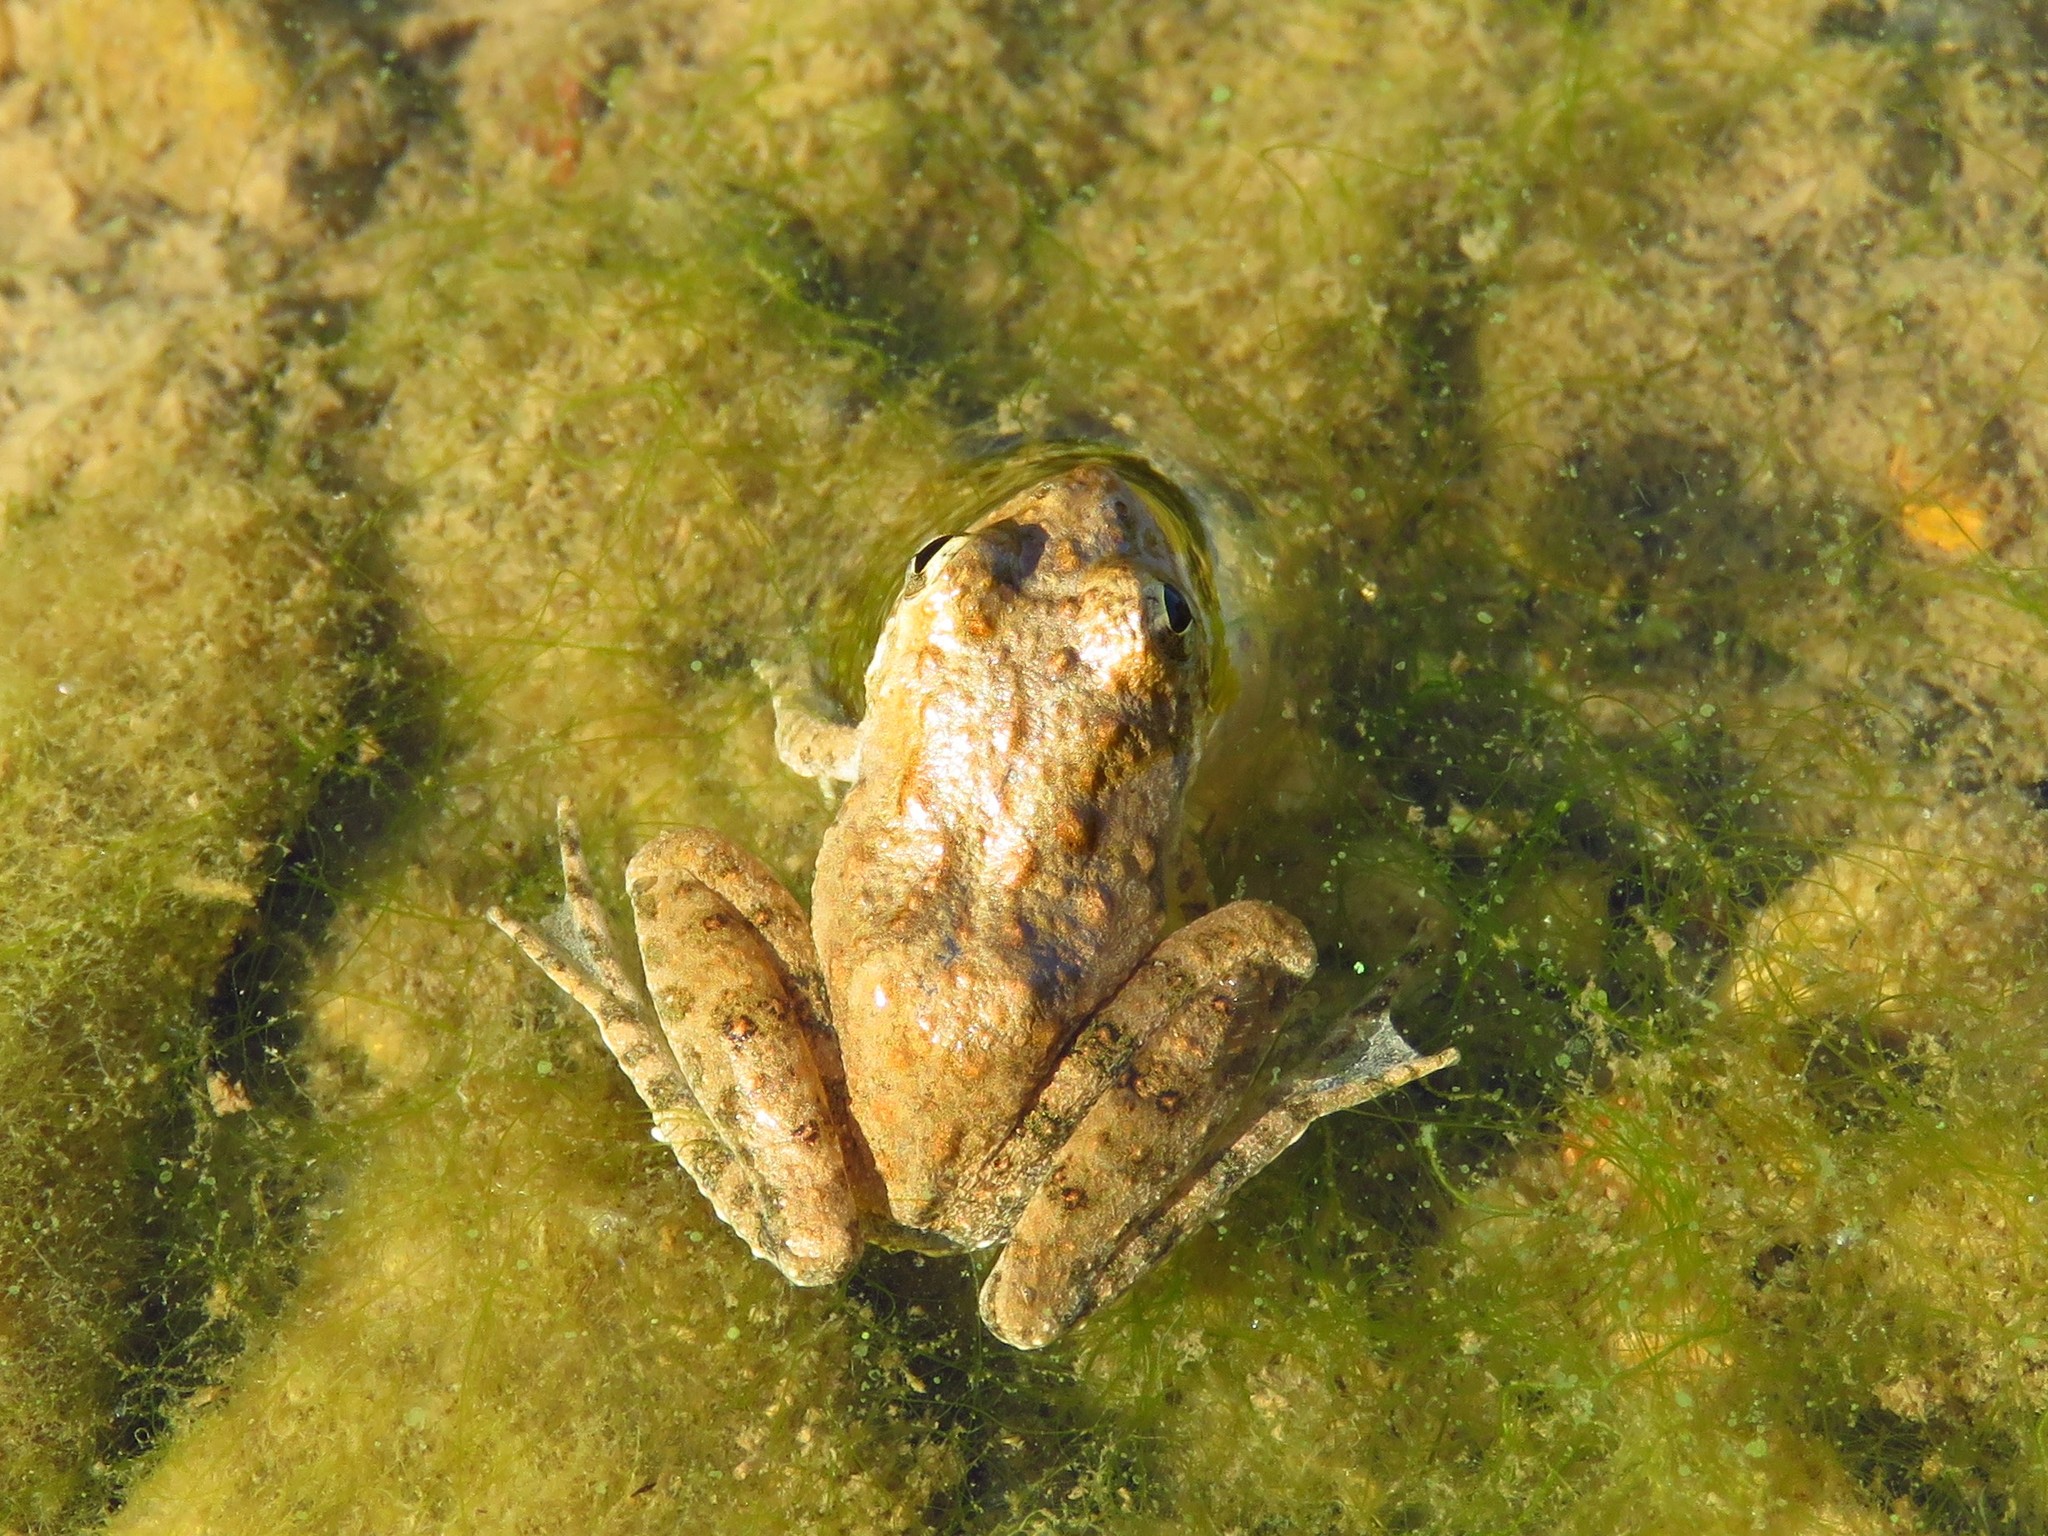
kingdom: Animalia
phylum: Chordata
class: Amphibia
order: Anura
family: Hylidae
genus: Acris
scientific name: Acris blanchardi
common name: Blanchard's cricket frog
